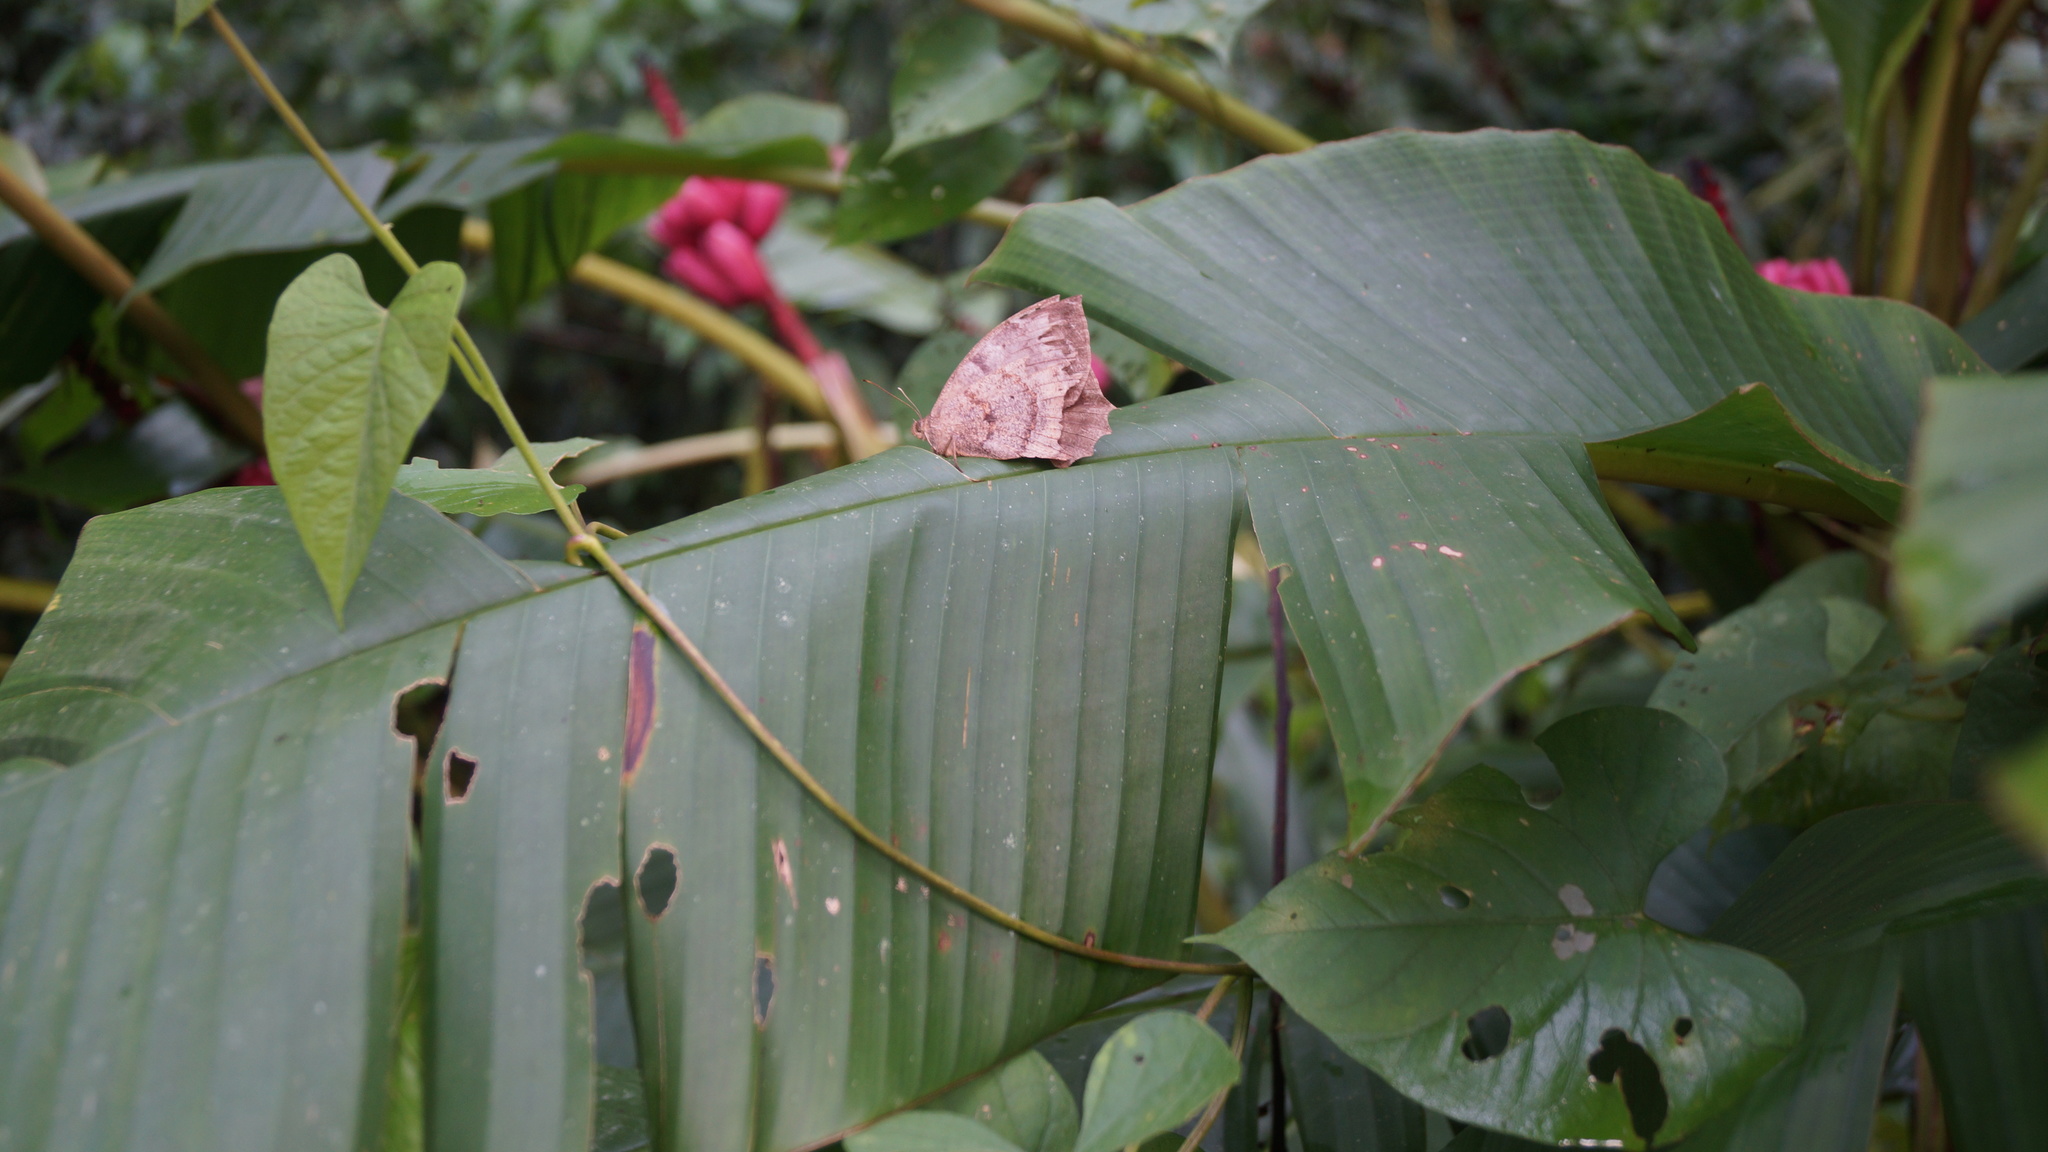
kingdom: Animalia
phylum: Arthropoda
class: Insecta
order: Lepidoptera
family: Nymphalidae
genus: Taygetis
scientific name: Taygetis larua
